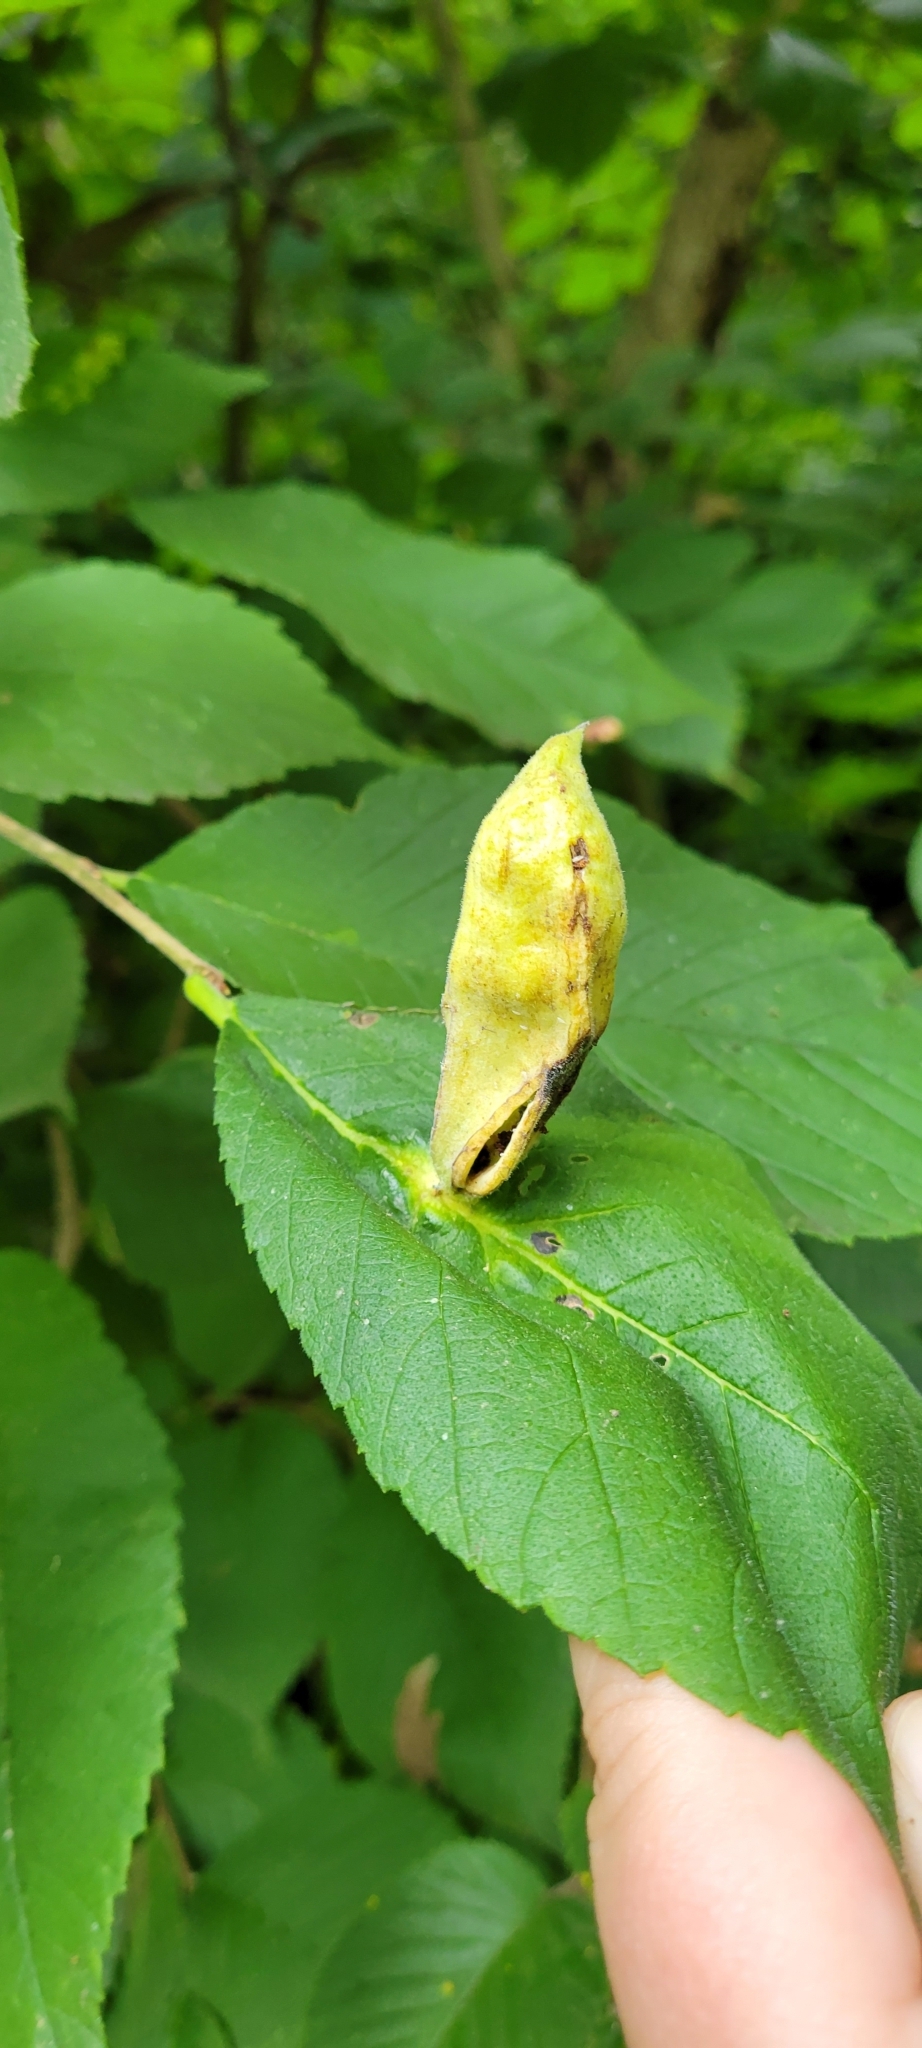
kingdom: Animalia
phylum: Arthropoda
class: Insecta
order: Hemiptera
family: Aphididae
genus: Kaltenbachiella
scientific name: Kaltenbachiella ulmifusa
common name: Elm pouchgall aphid
